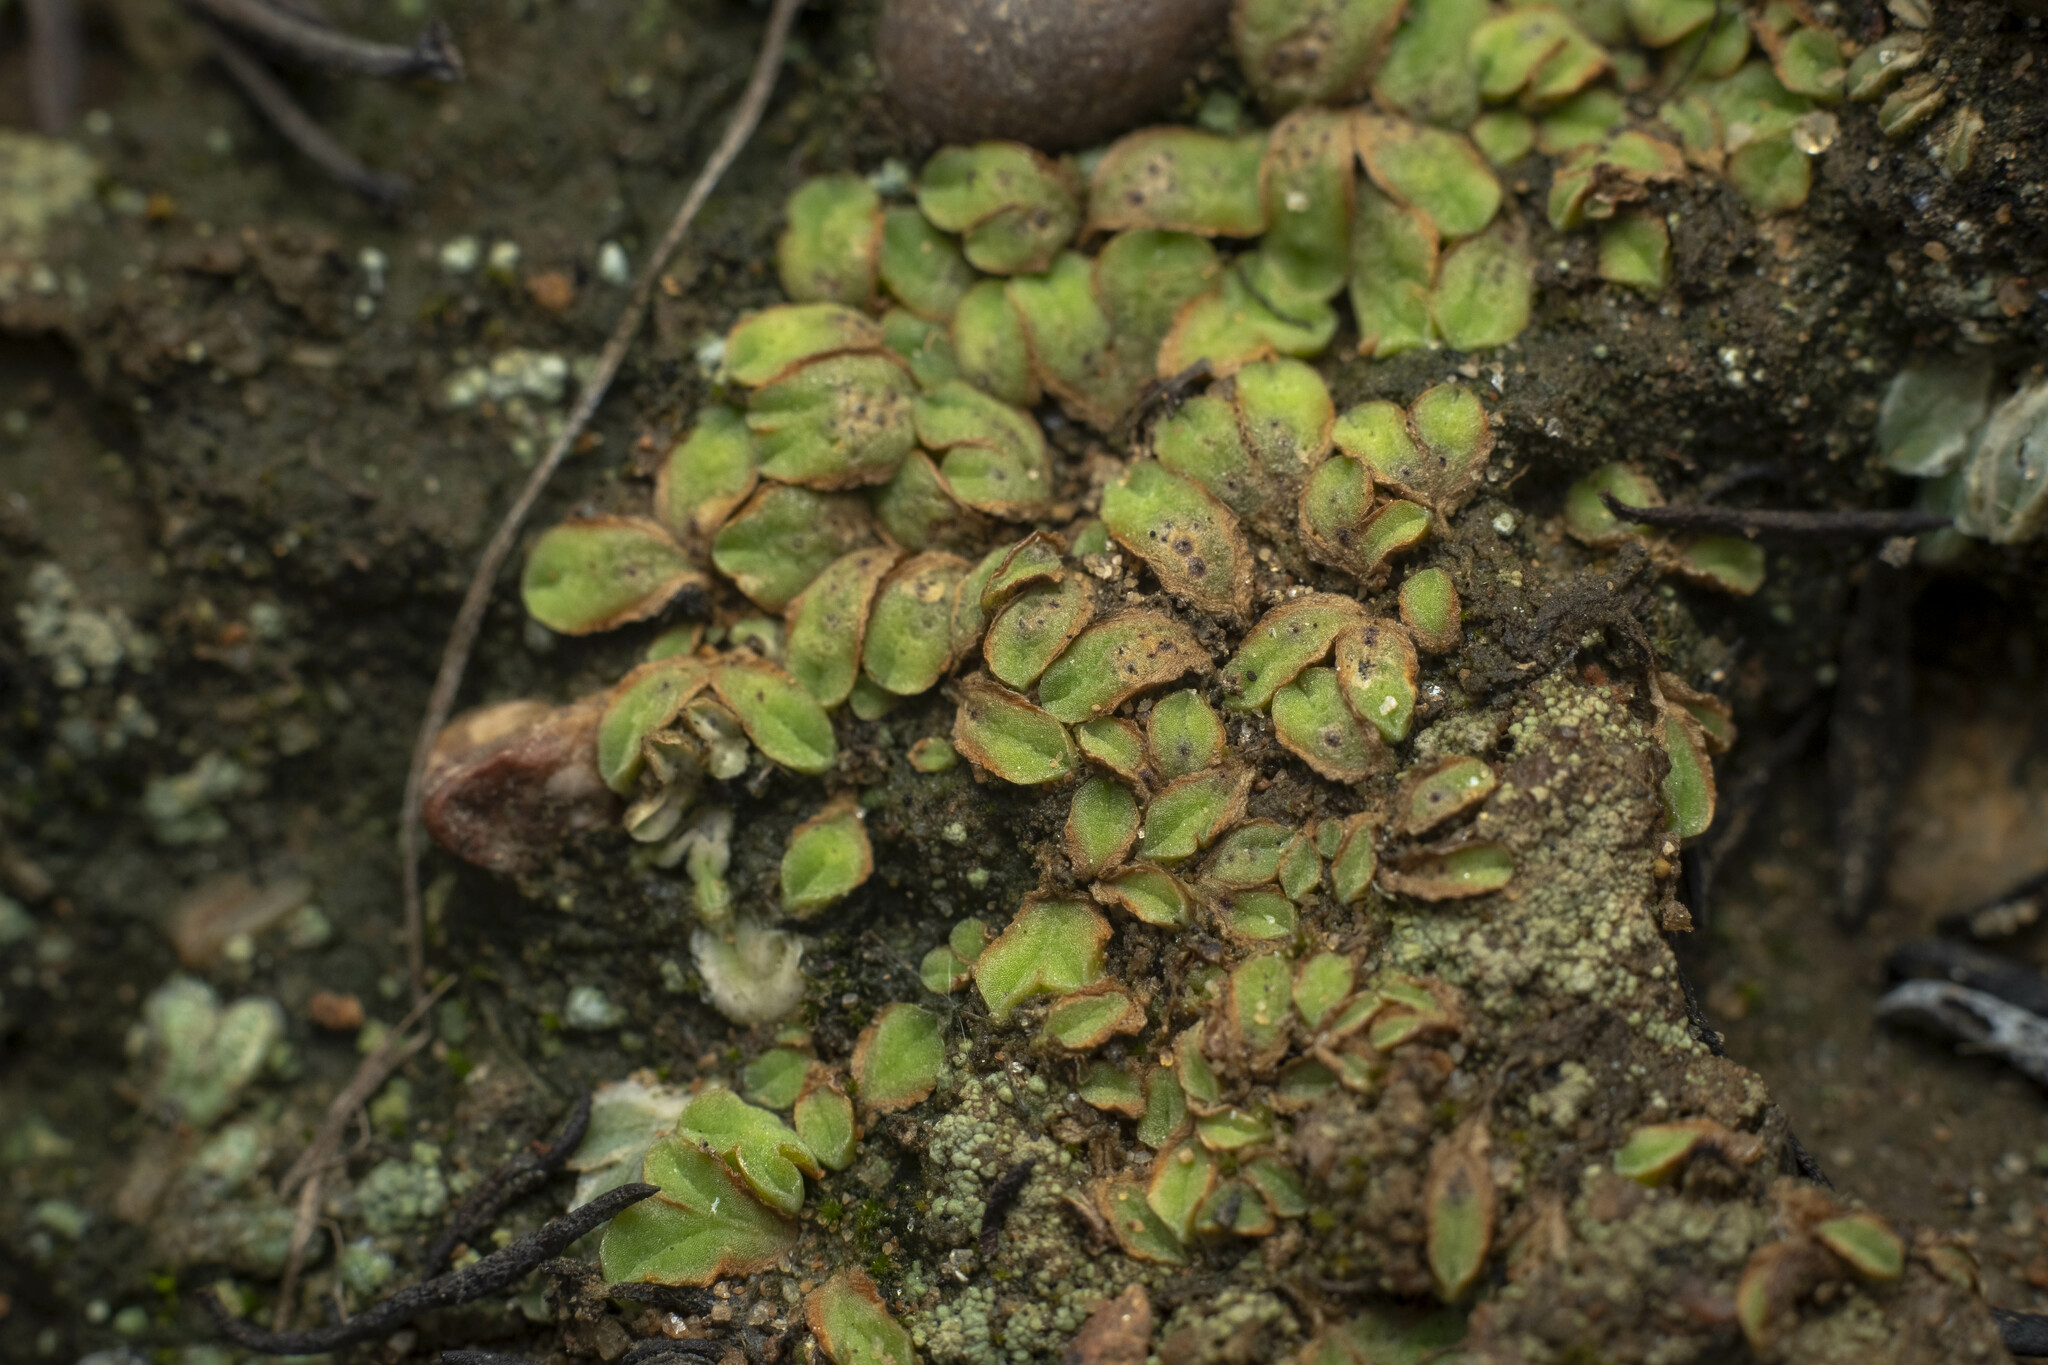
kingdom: Plantae
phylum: Marchantiophyta
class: Marchantiopsida
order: Marchantiales
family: Ricciaceae
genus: Riccia
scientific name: Riccia campbelliana
